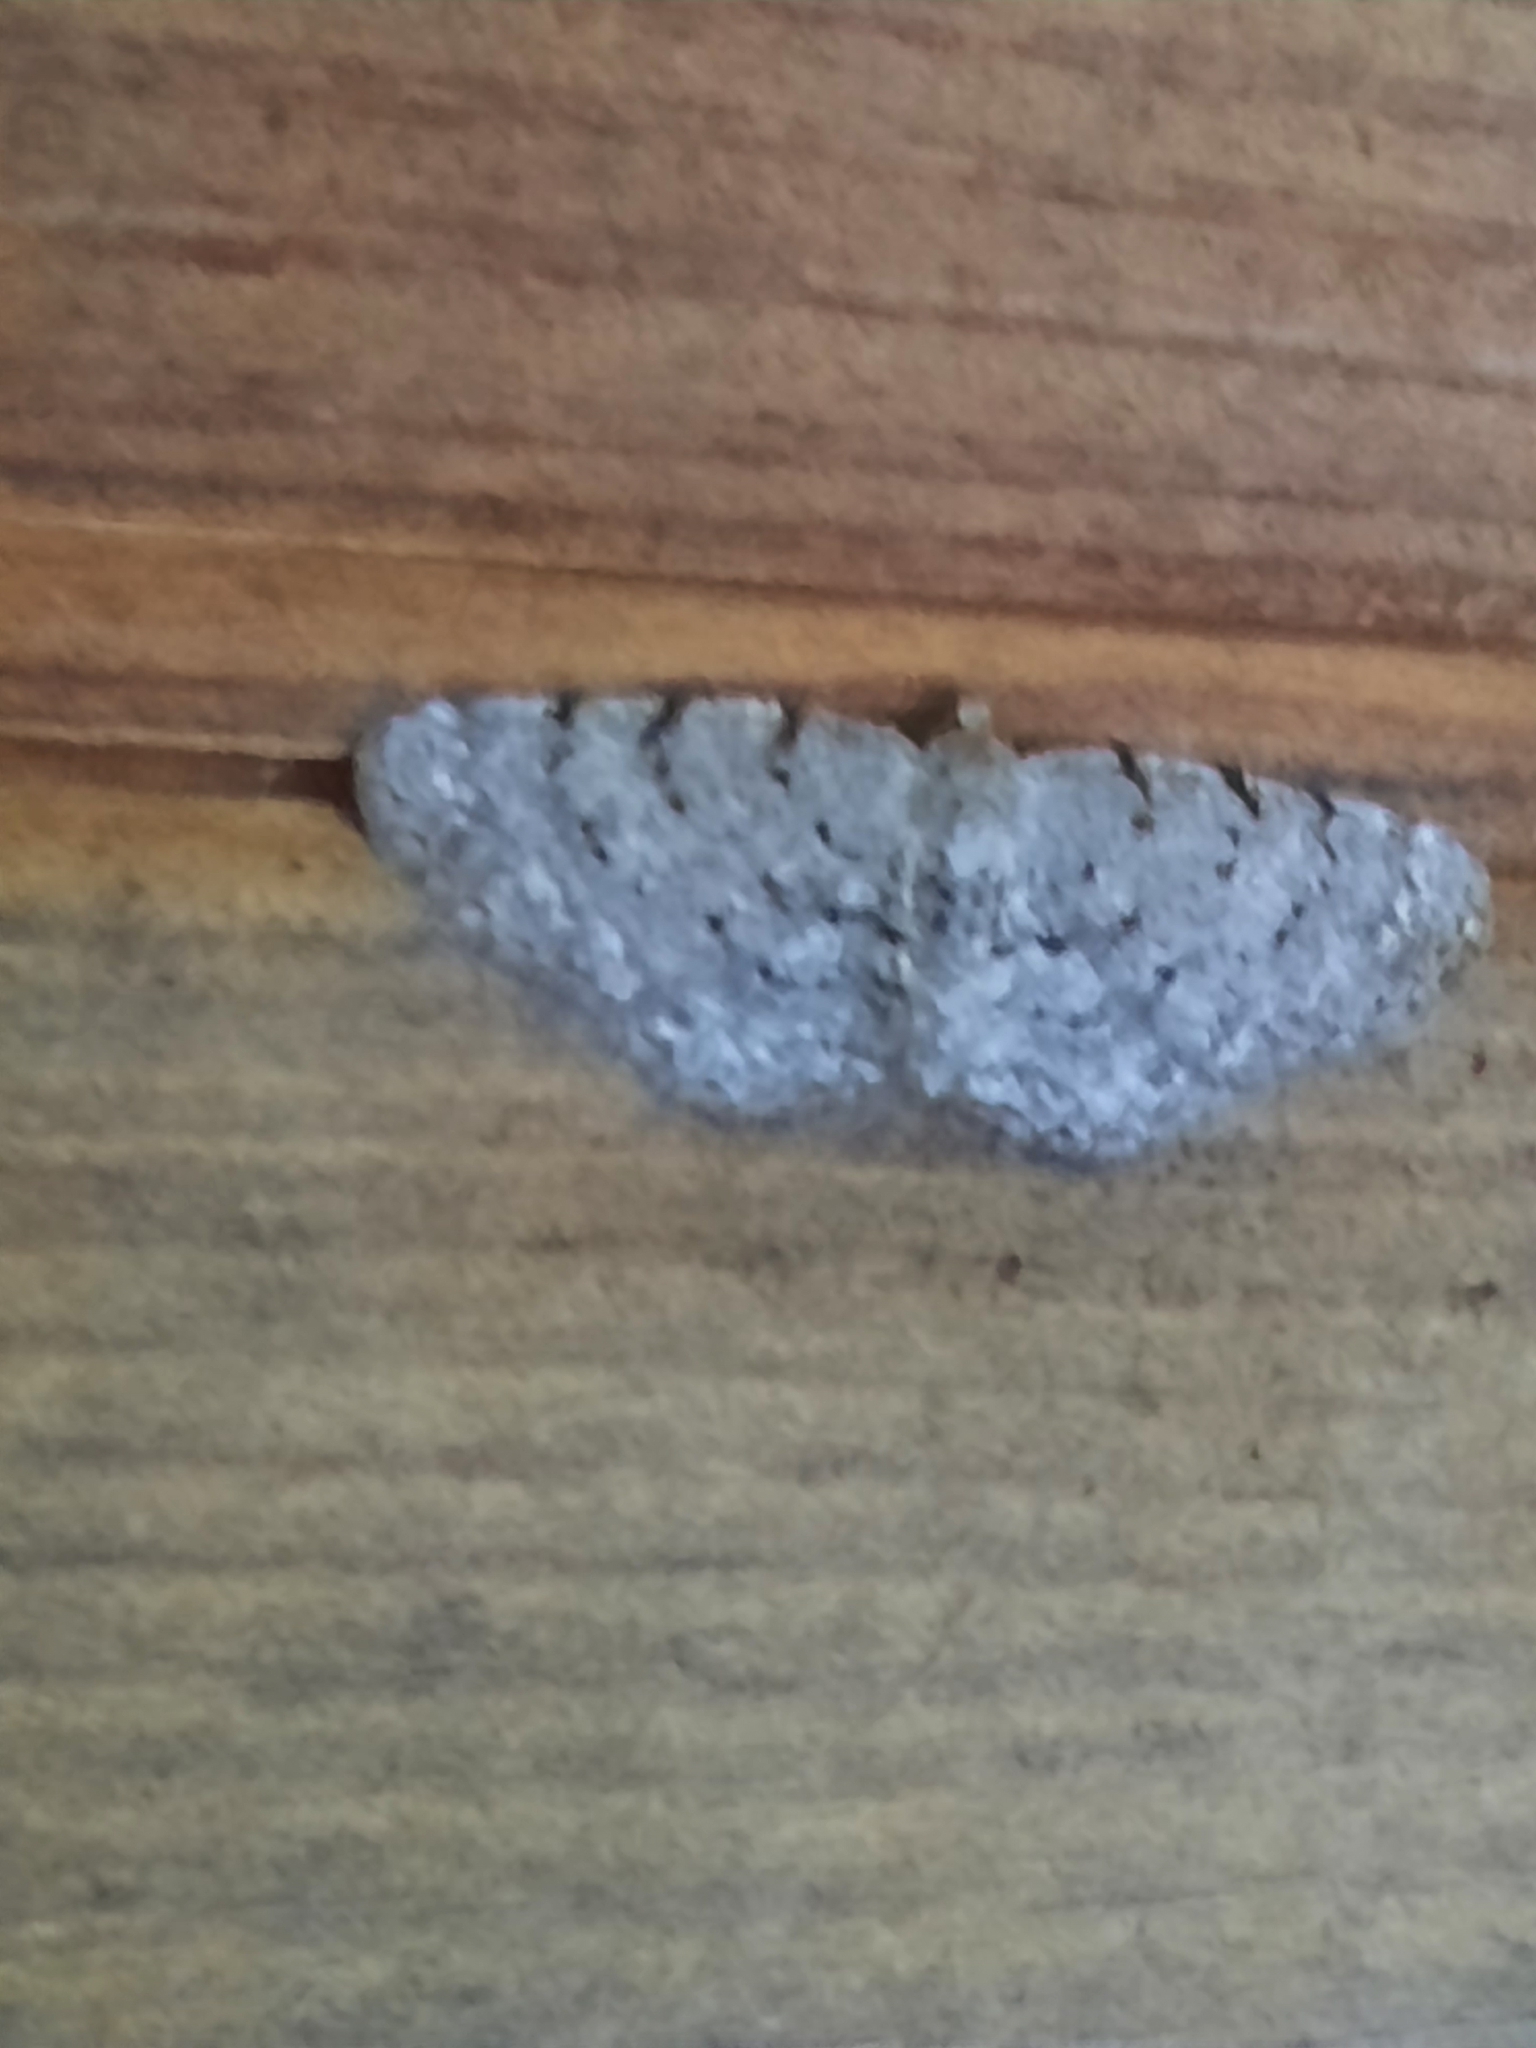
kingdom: Animalia
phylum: Arthropoda
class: Insecta
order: Lepidoptera
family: Geometridae
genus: Aethalura
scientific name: Aethalura intertexta
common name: Four-barred gray
